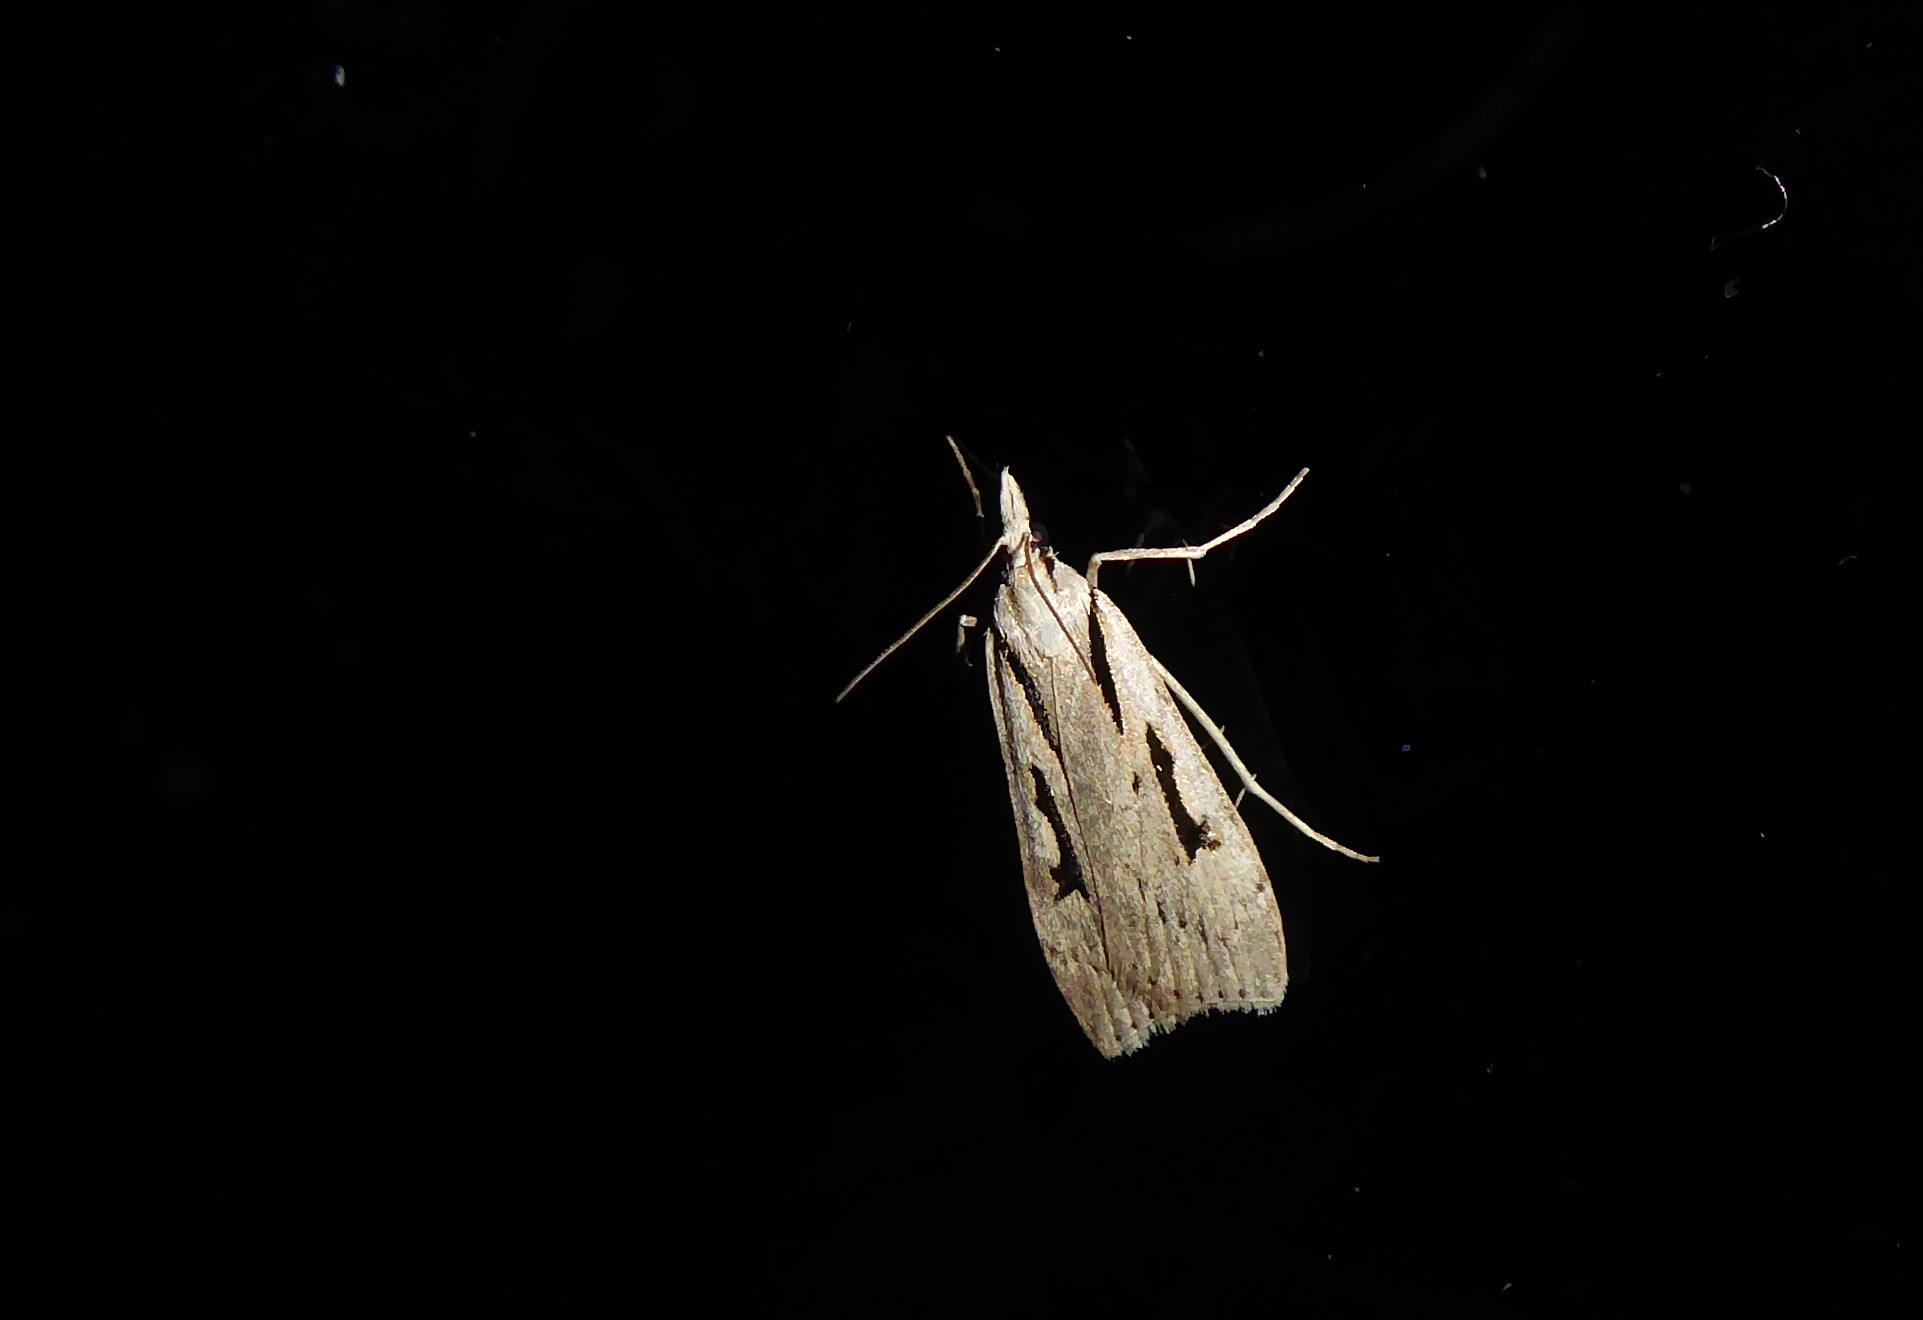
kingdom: Animalia
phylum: Arthropoda
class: Insecta
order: Lepidoptera
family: Crambidae
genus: Scoparia
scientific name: Scoparia rotuellus
